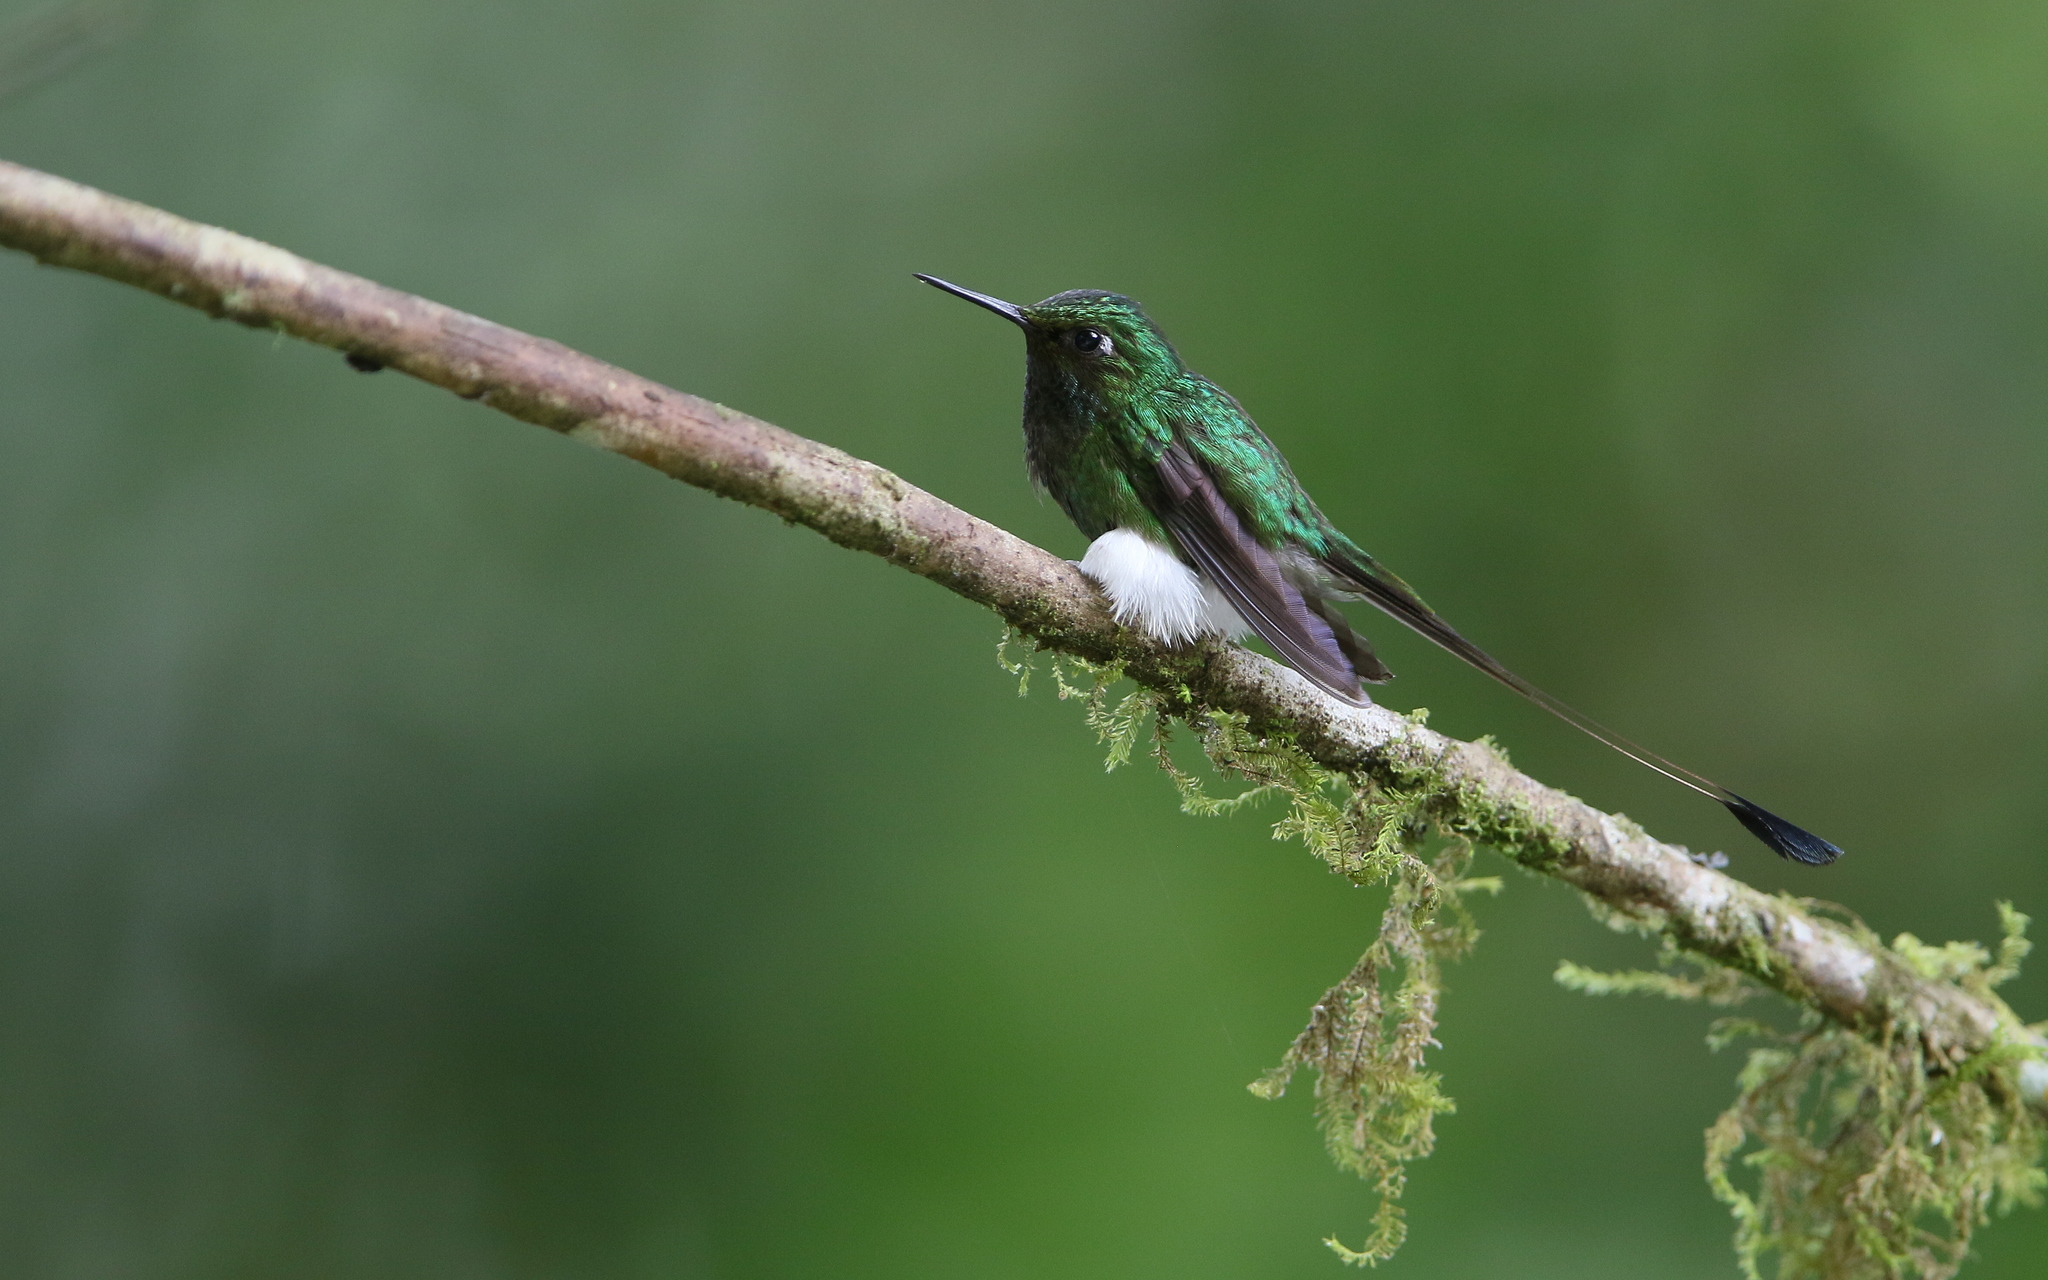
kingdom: Animalia
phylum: Chordata
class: Aves
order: Apodiformes
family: Trochilidae
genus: Ocreatus
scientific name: Ocreatus underwoodii
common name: Booted racket-tail
